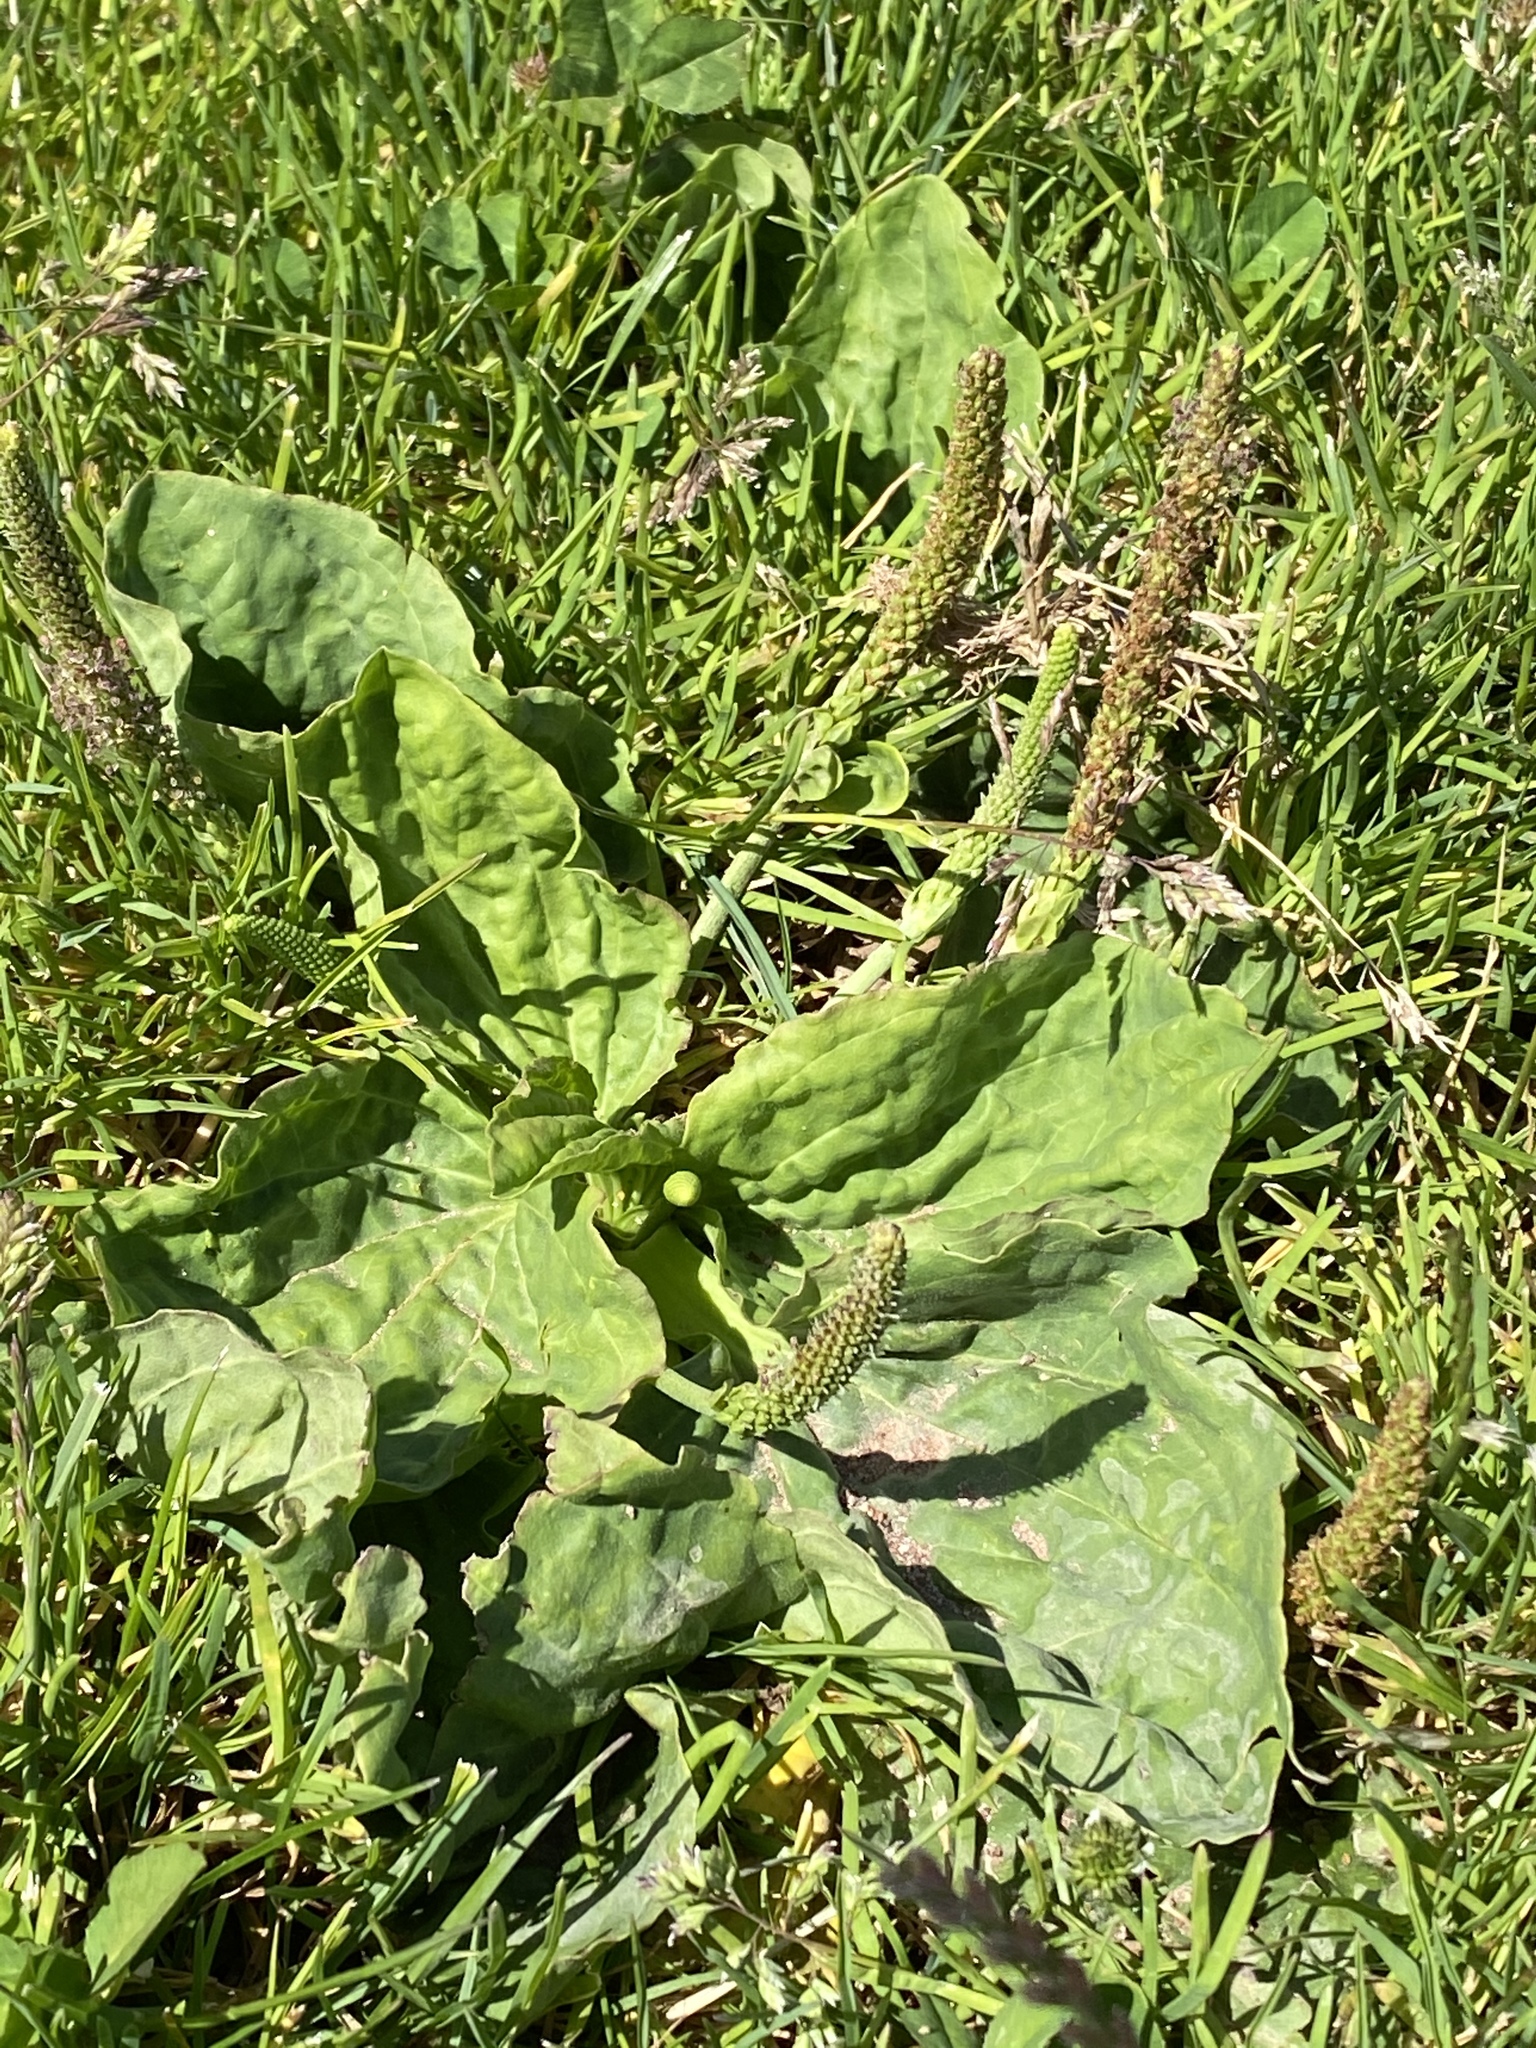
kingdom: Plantae
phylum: Tracheophyta
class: Magnoliopsida
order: Lamiales
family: Plantaginaceae
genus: Plantago
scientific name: Plantago major
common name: Common plantain
